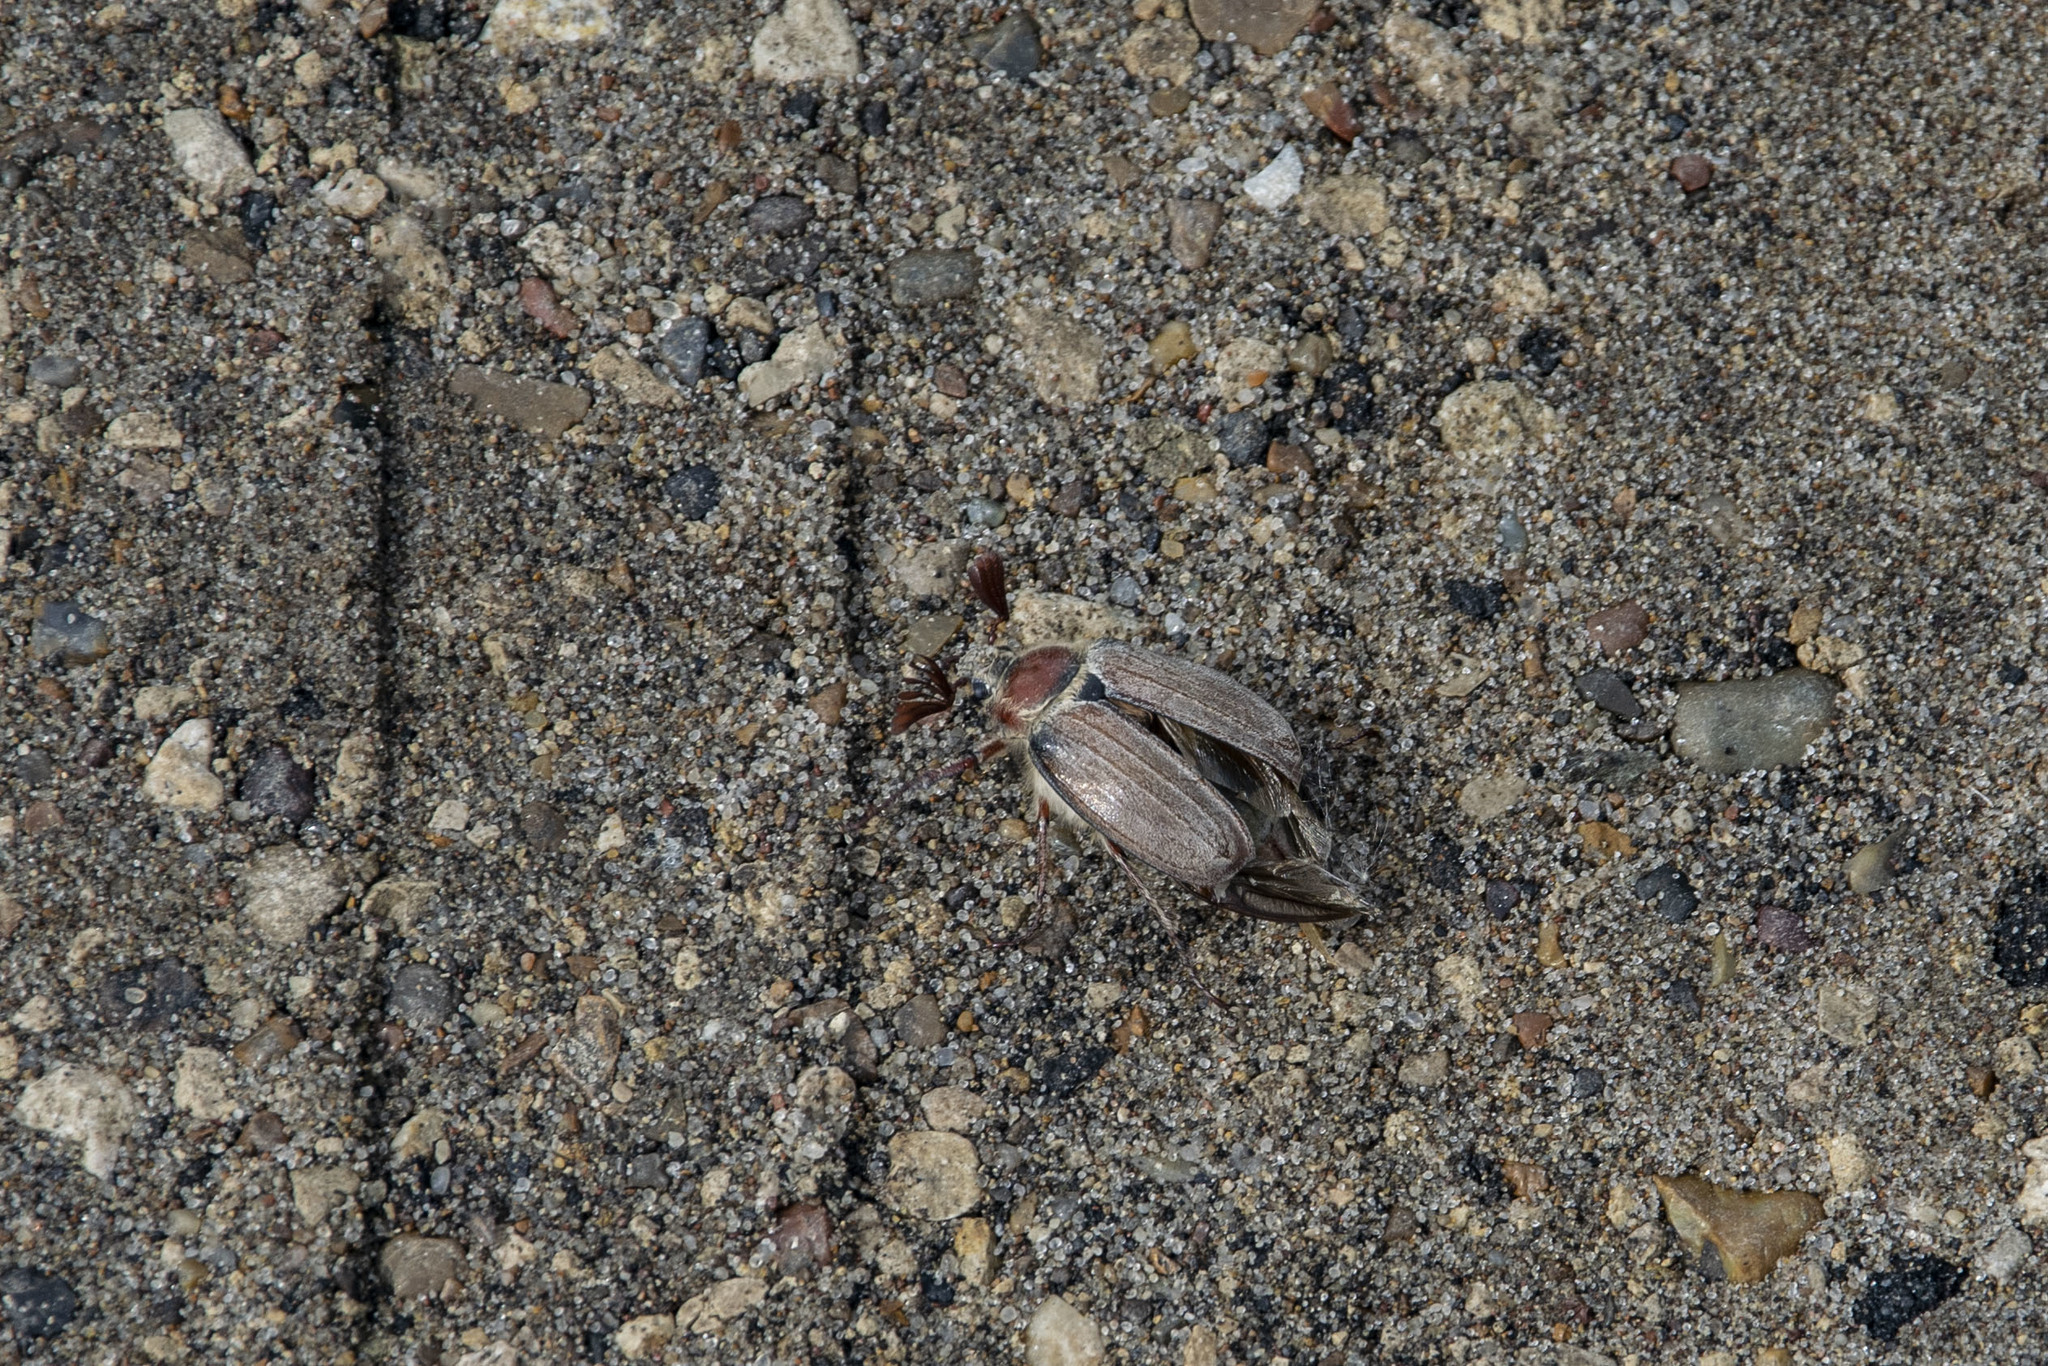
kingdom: Animalia
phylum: Arthropoda
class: Insecta
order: Coleoptera
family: Scarabaeidae
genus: Melolontha
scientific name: Melolontha hippocastani
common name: Chestnut cockchafer
